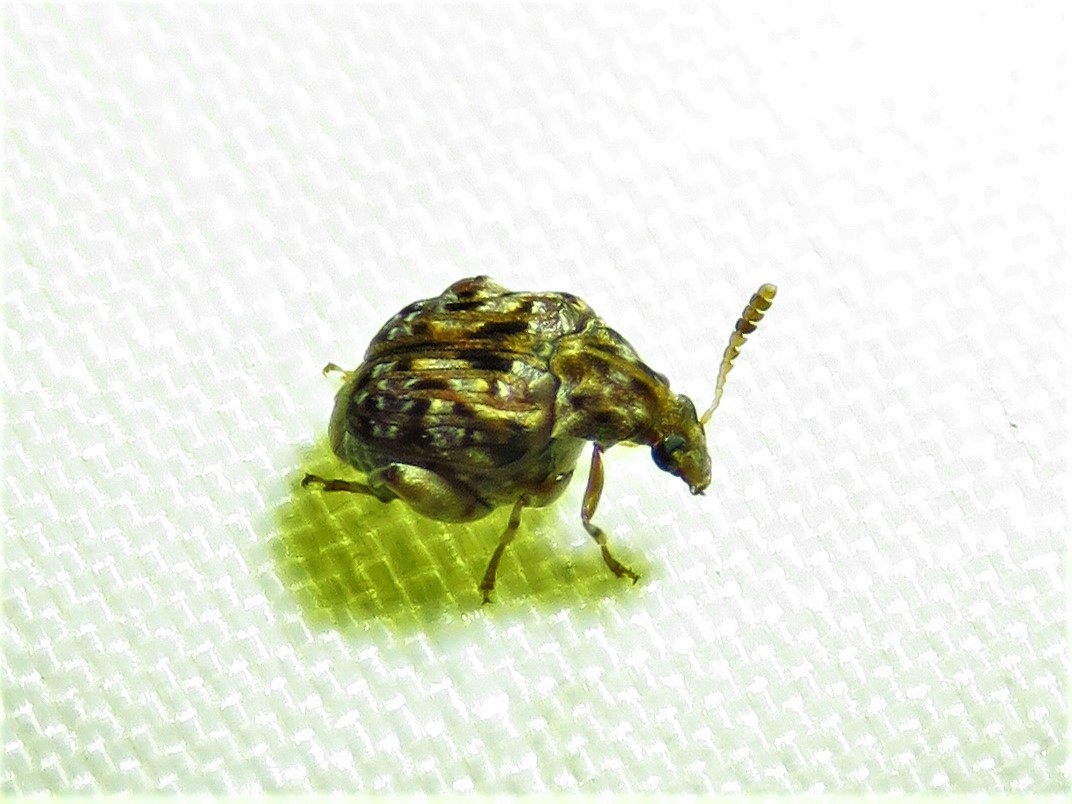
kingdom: Animalia
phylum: Arthropoda
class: Insecta
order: Coleoptera
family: Chrysomelidae
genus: Gibbobruchus
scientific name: Gibbobruchus mimus
